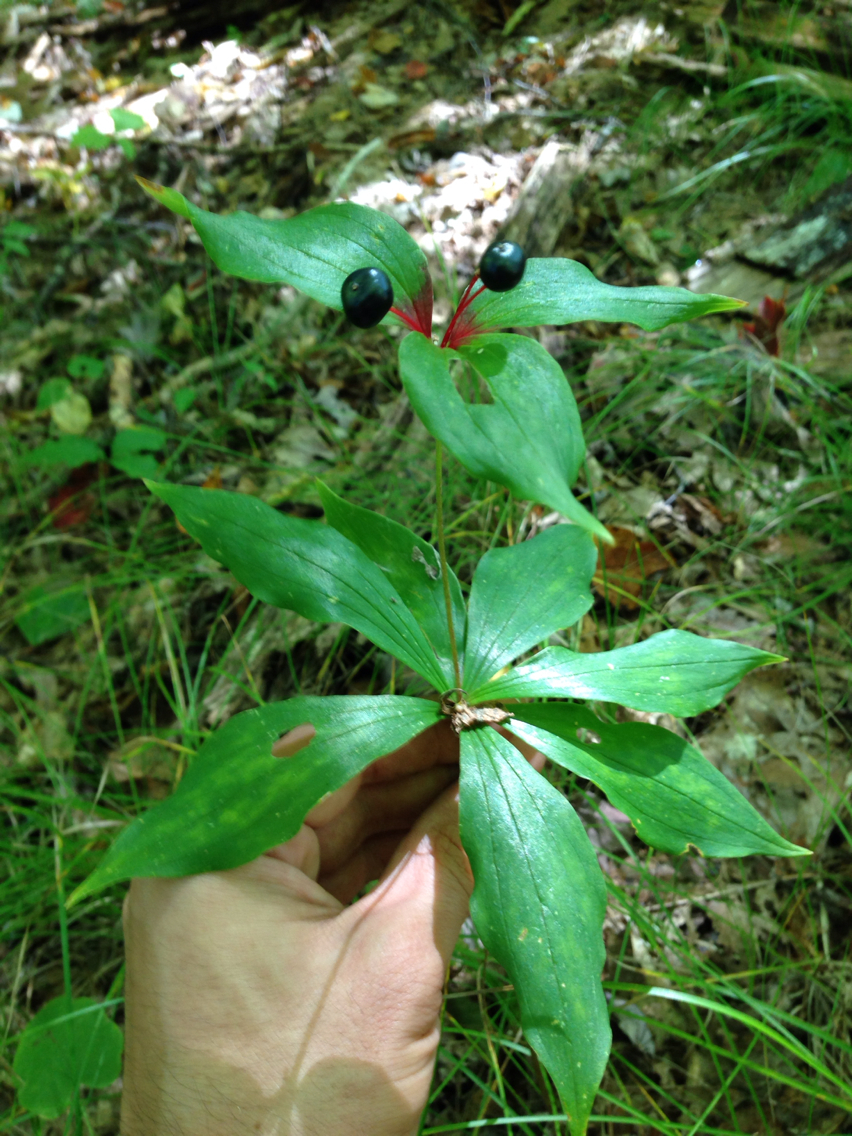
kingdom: Plantae
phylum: Tracheophyta
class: Liliopsida
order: Liliales
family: Liliaceae
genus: Medeola
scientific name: Medeola virginiana
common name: Indian cucumber-root
